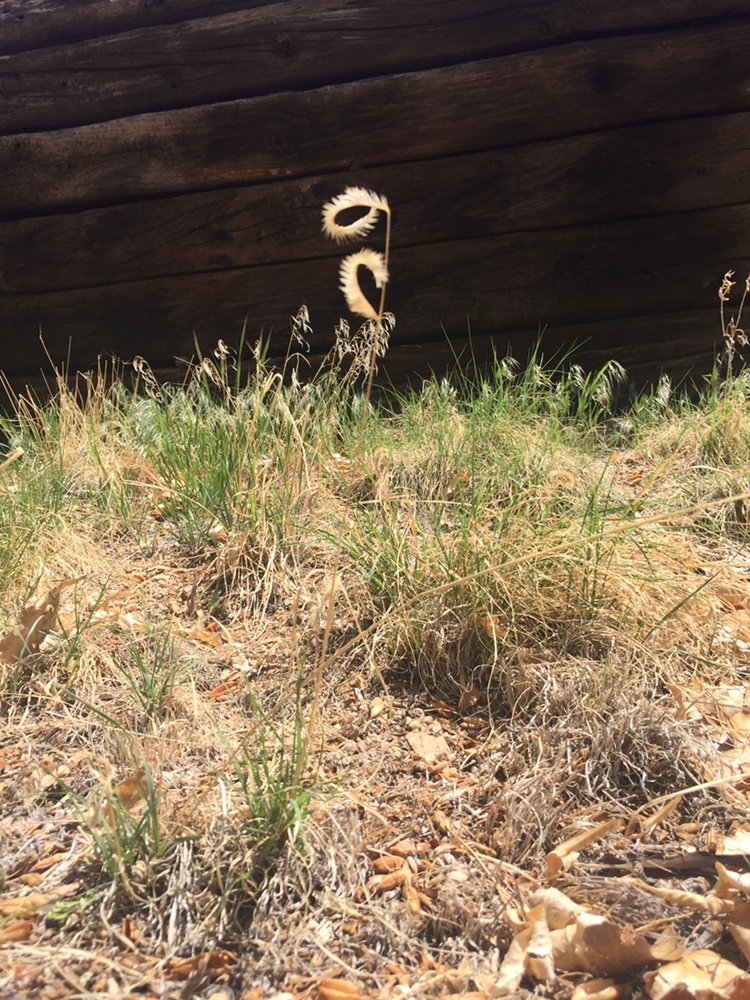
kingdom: Plantae
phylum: Tracheophyta
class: Liliopsida
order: Poales
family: Poaceae
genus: Bouteloua
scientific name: Bouteloua gracilis
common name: Blue grama
